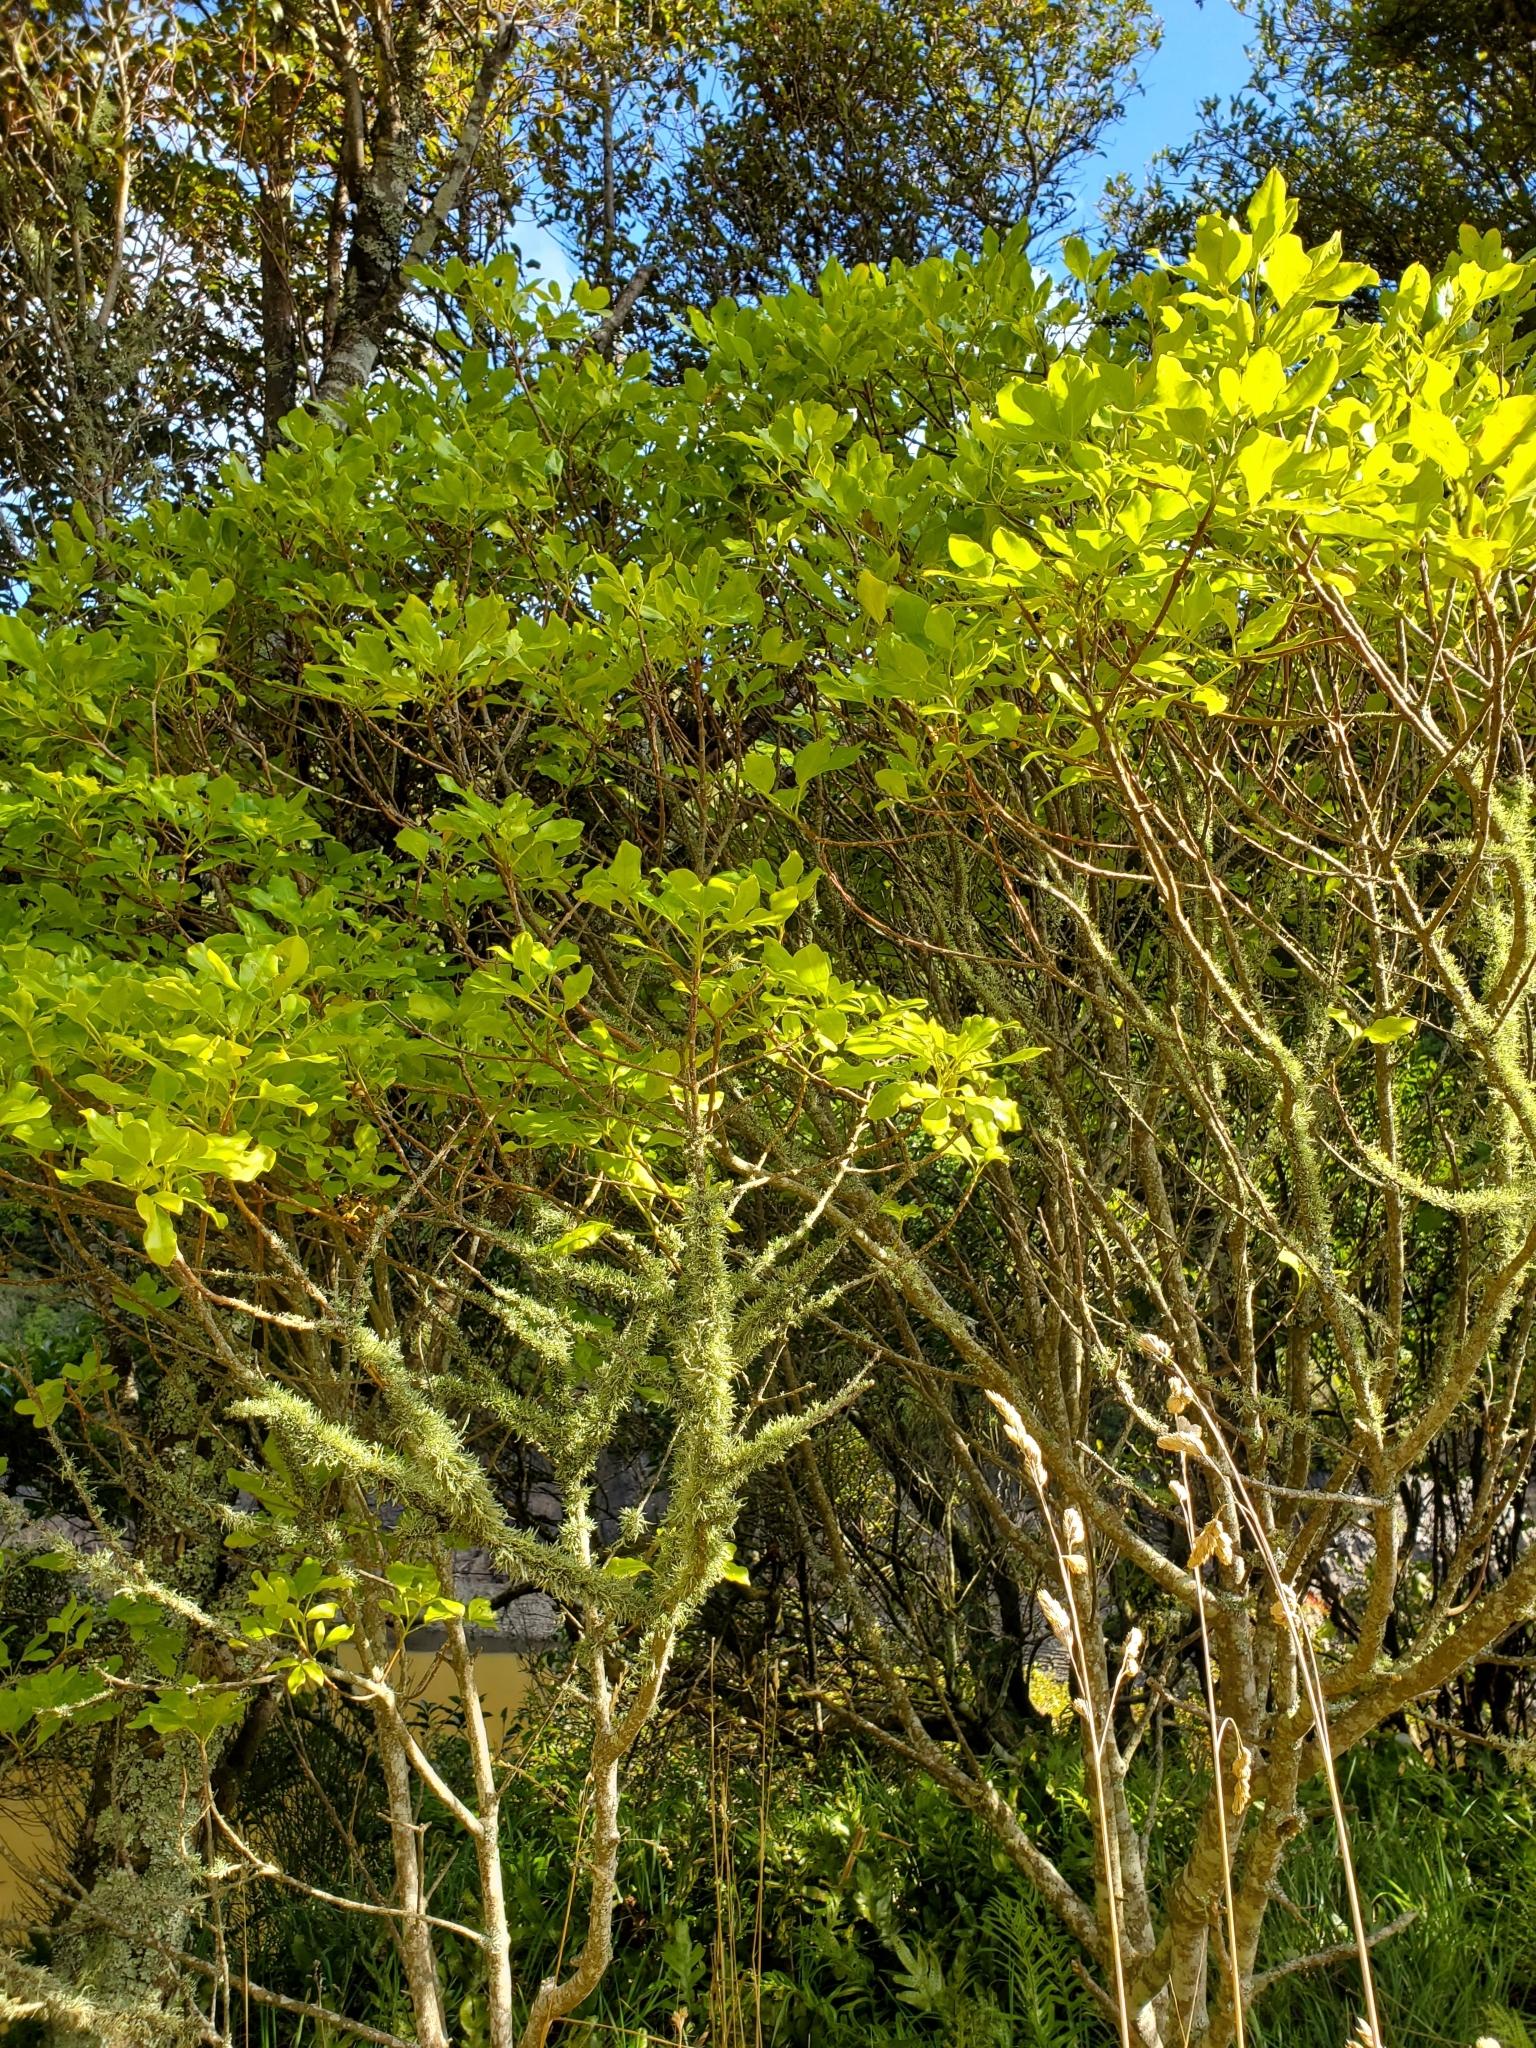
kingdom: Plantae
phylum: Tracheophyta
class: Magnoliopsida
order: Sapindales
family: Rutaceae
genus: Melicope
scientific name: Melicope ternata
